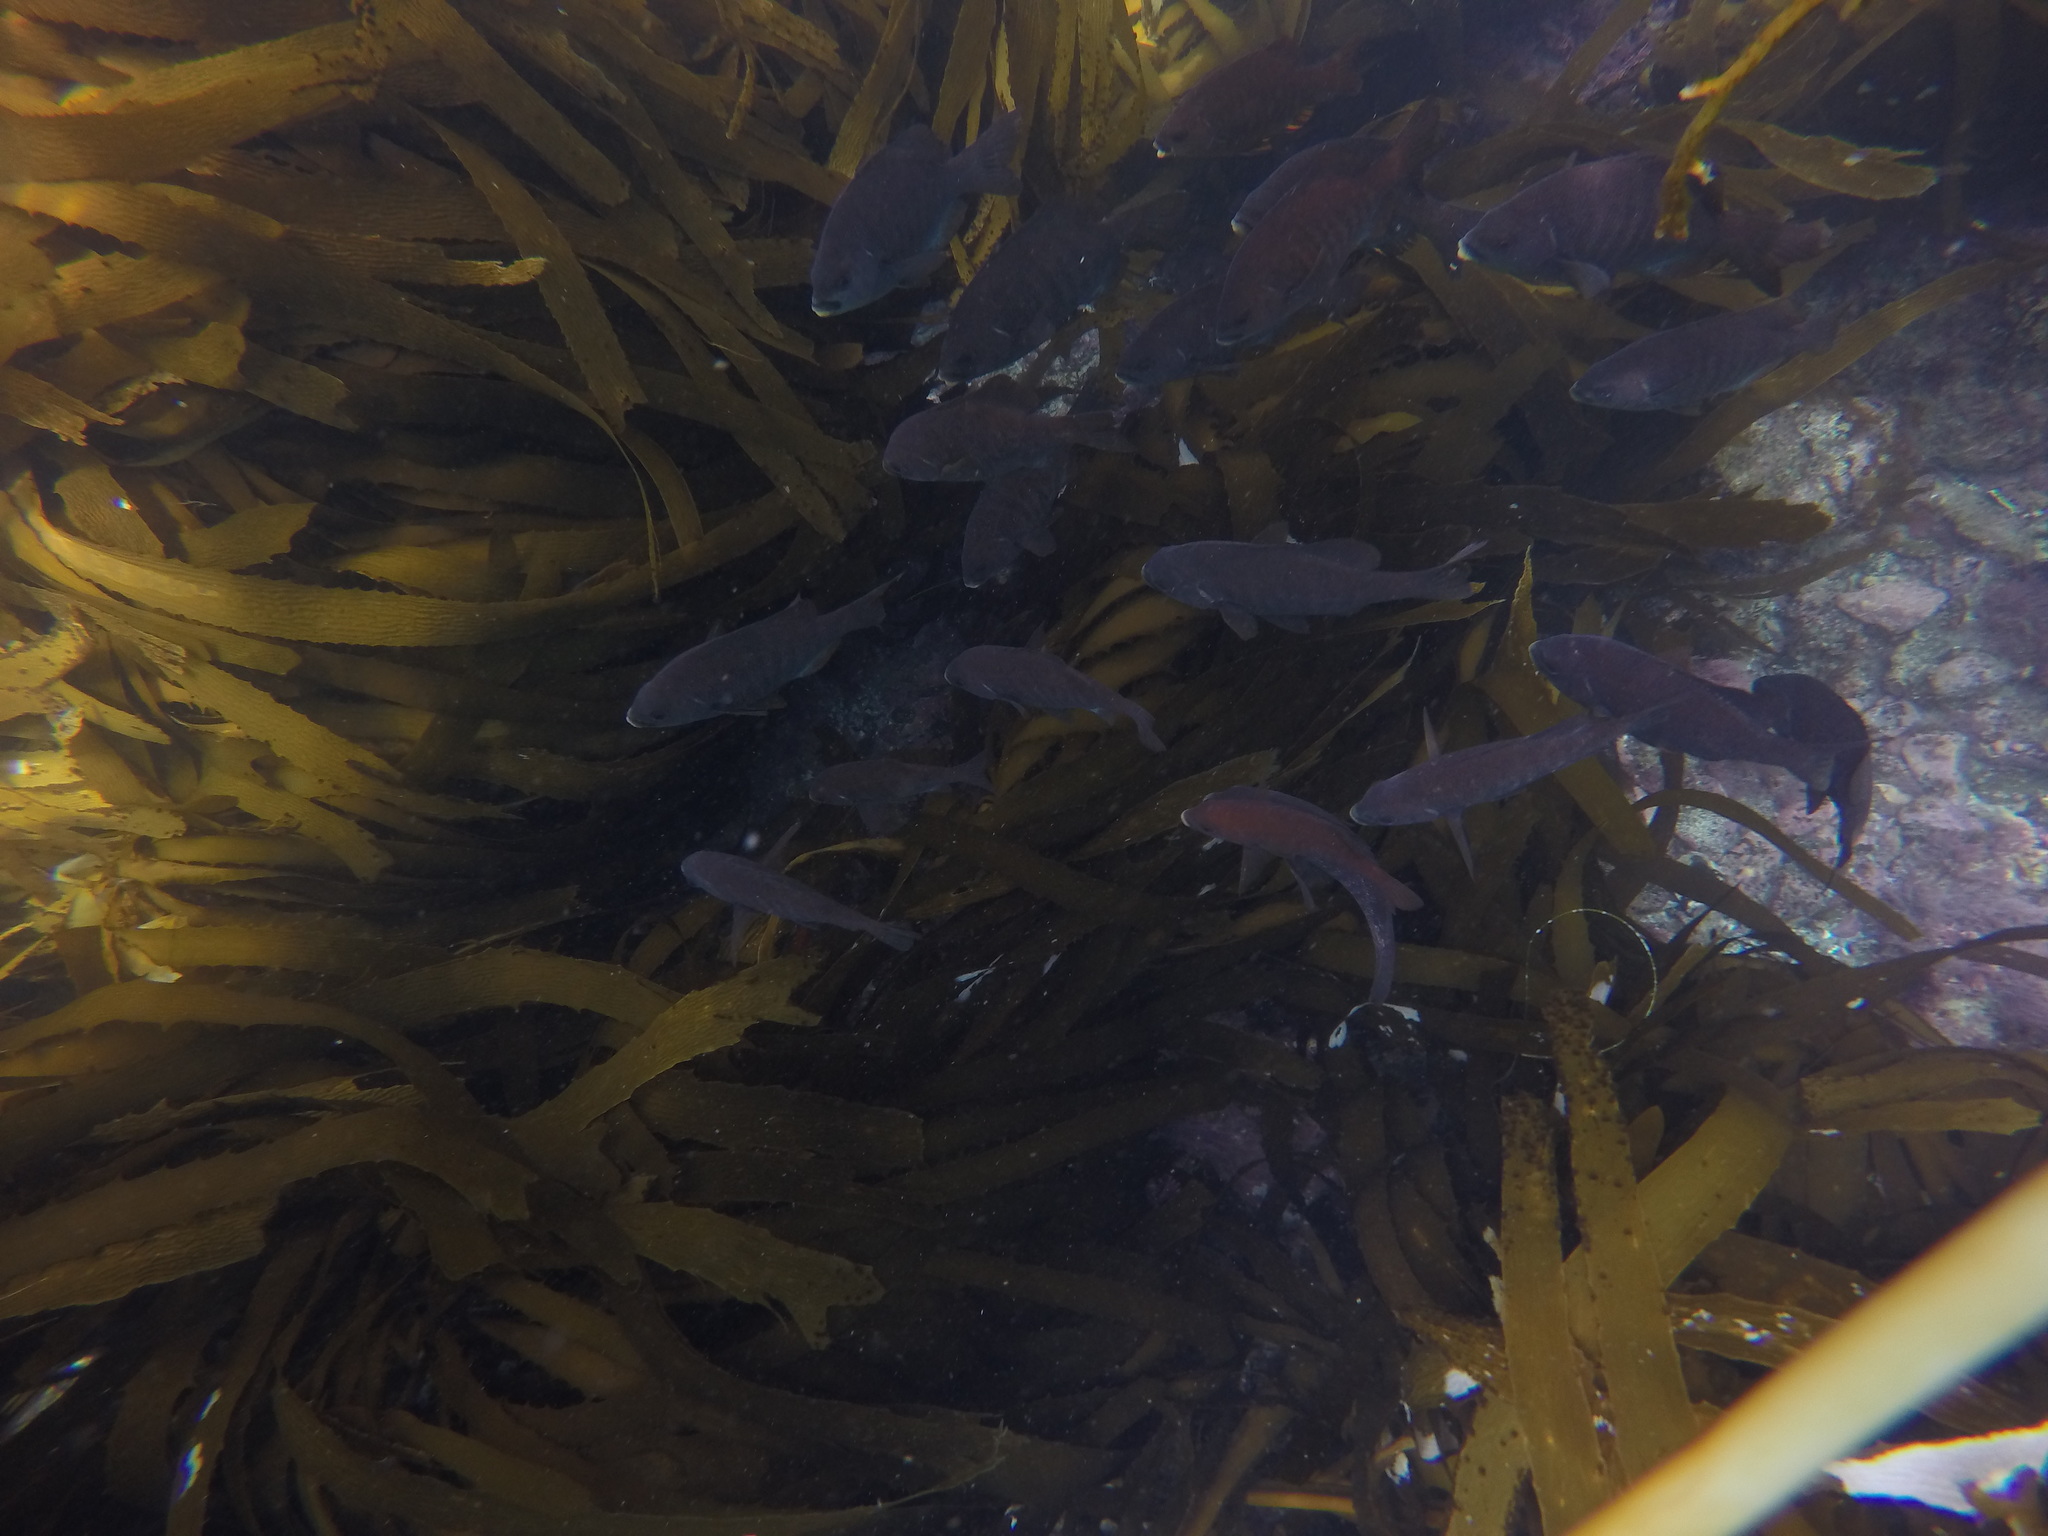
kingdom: Animalia
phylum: Chordata
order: Perciformes
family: Embiotocidae
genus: Embiotoca
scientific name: Embiotoca jacksoni
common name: Black perch
